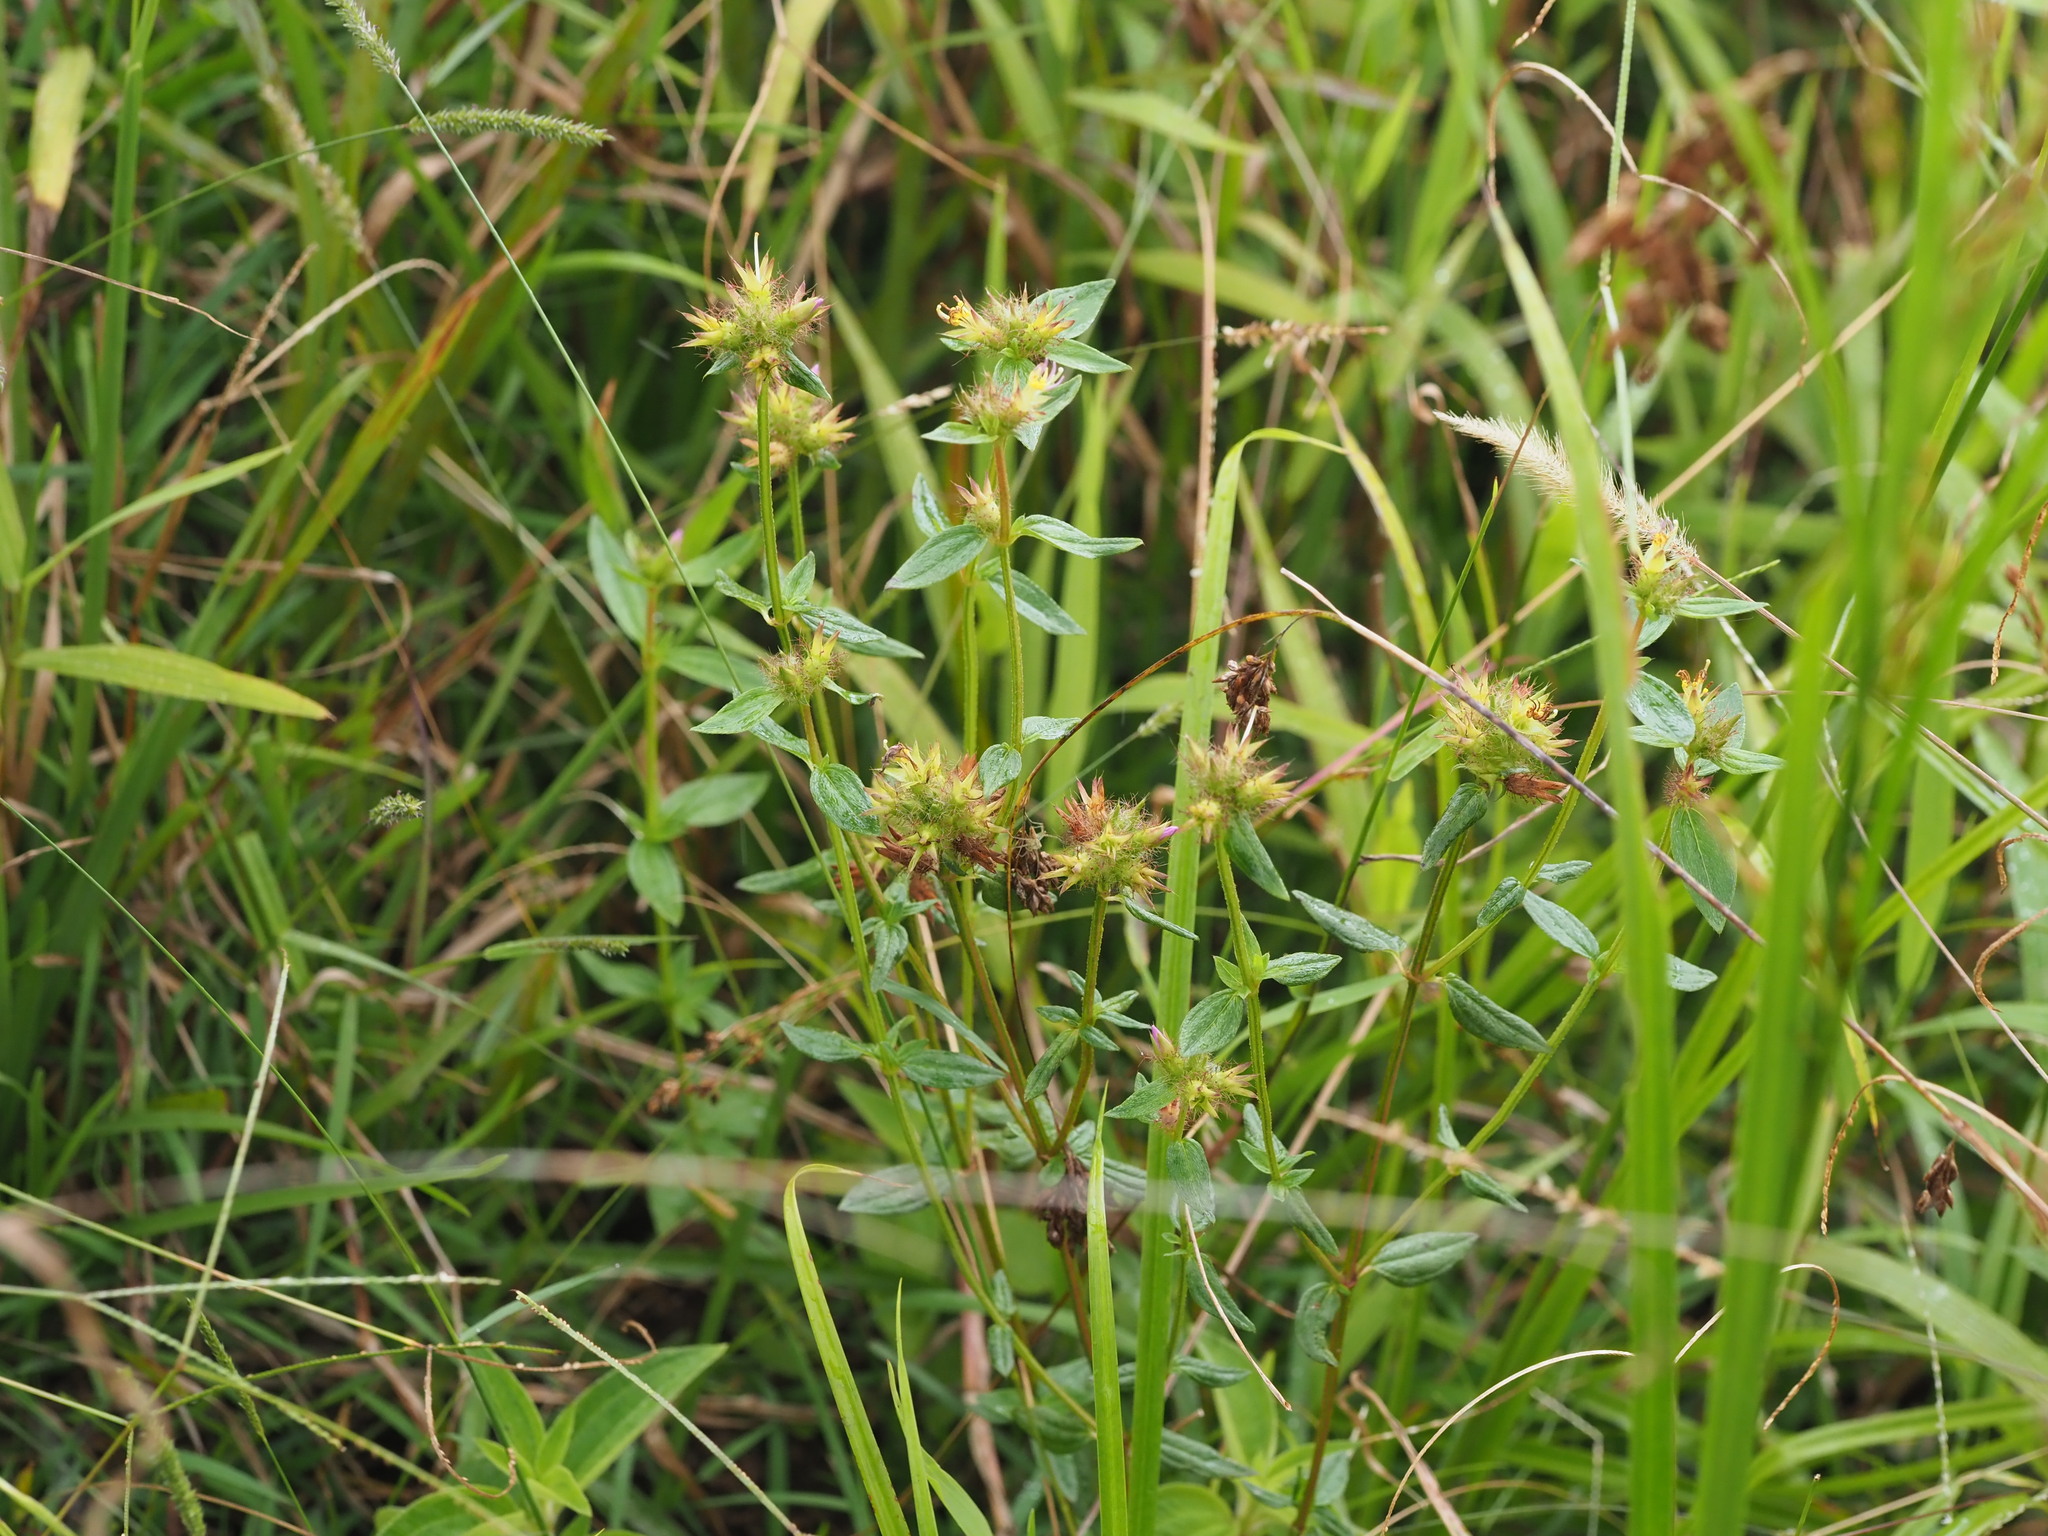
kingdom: Plantae
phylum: Tracheophyta
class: Magnoliopsida
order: Myrtales
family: Melastomataceae
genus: Pterolepis
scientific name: Pterolepis glomerata
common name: False meadowbeauty
